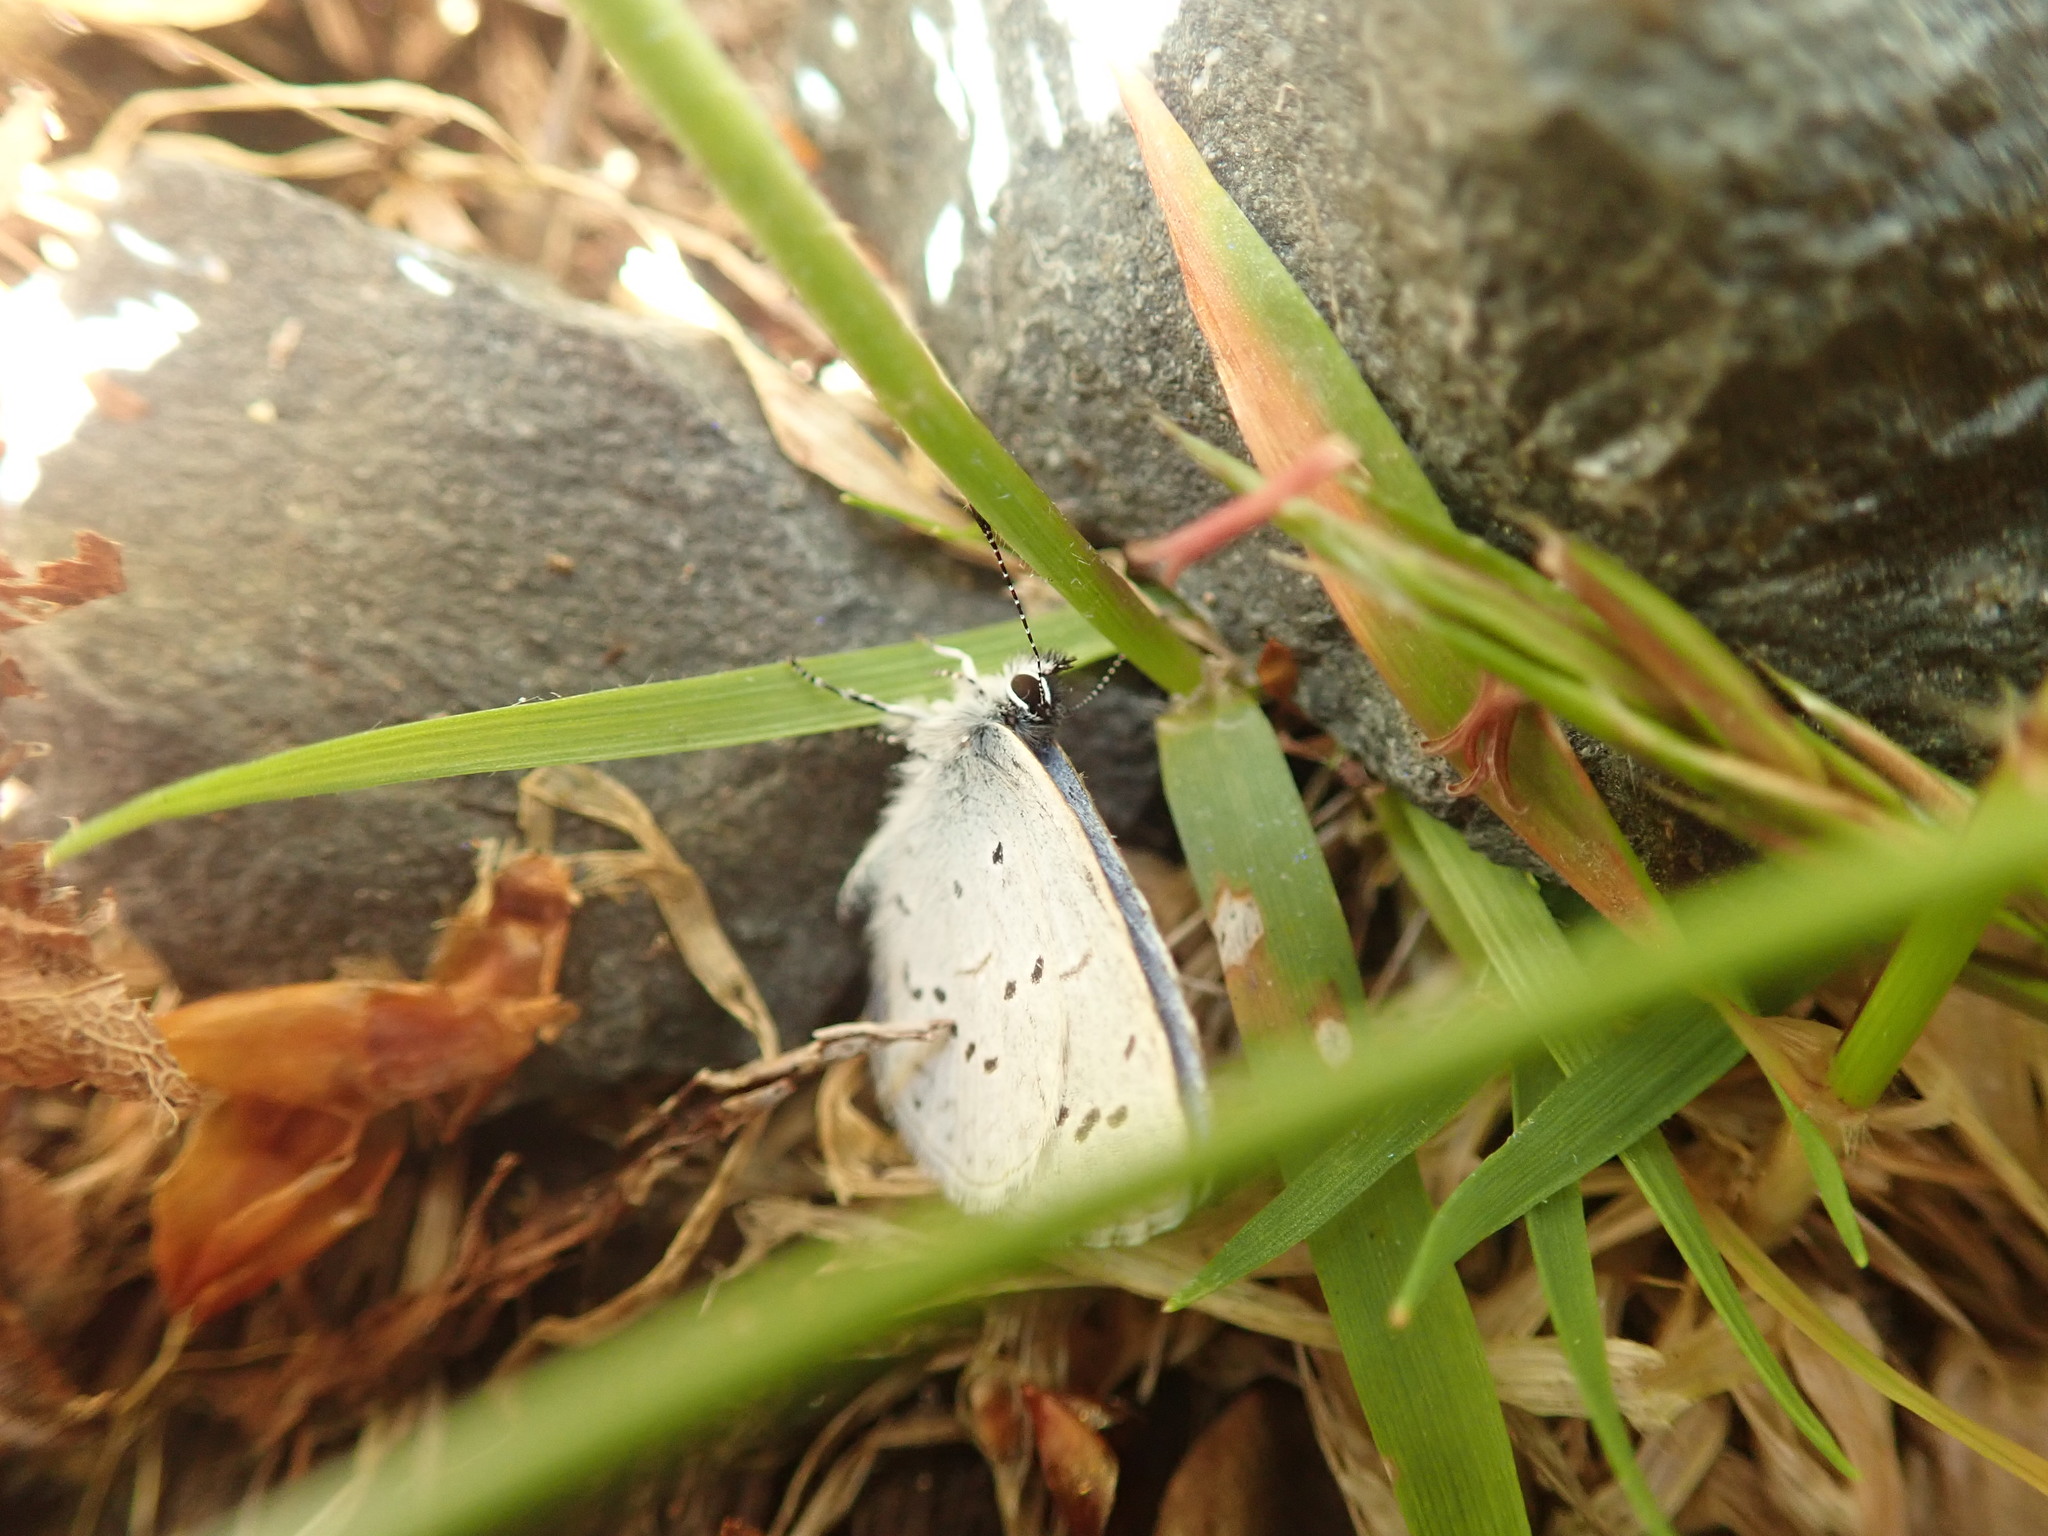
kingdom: Animalia
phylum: Arthropoda
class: Insecta
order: Lepidoptera
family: Lycaenidae
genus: Celastrina
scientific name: Celastrina ladon
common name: Spring azure
